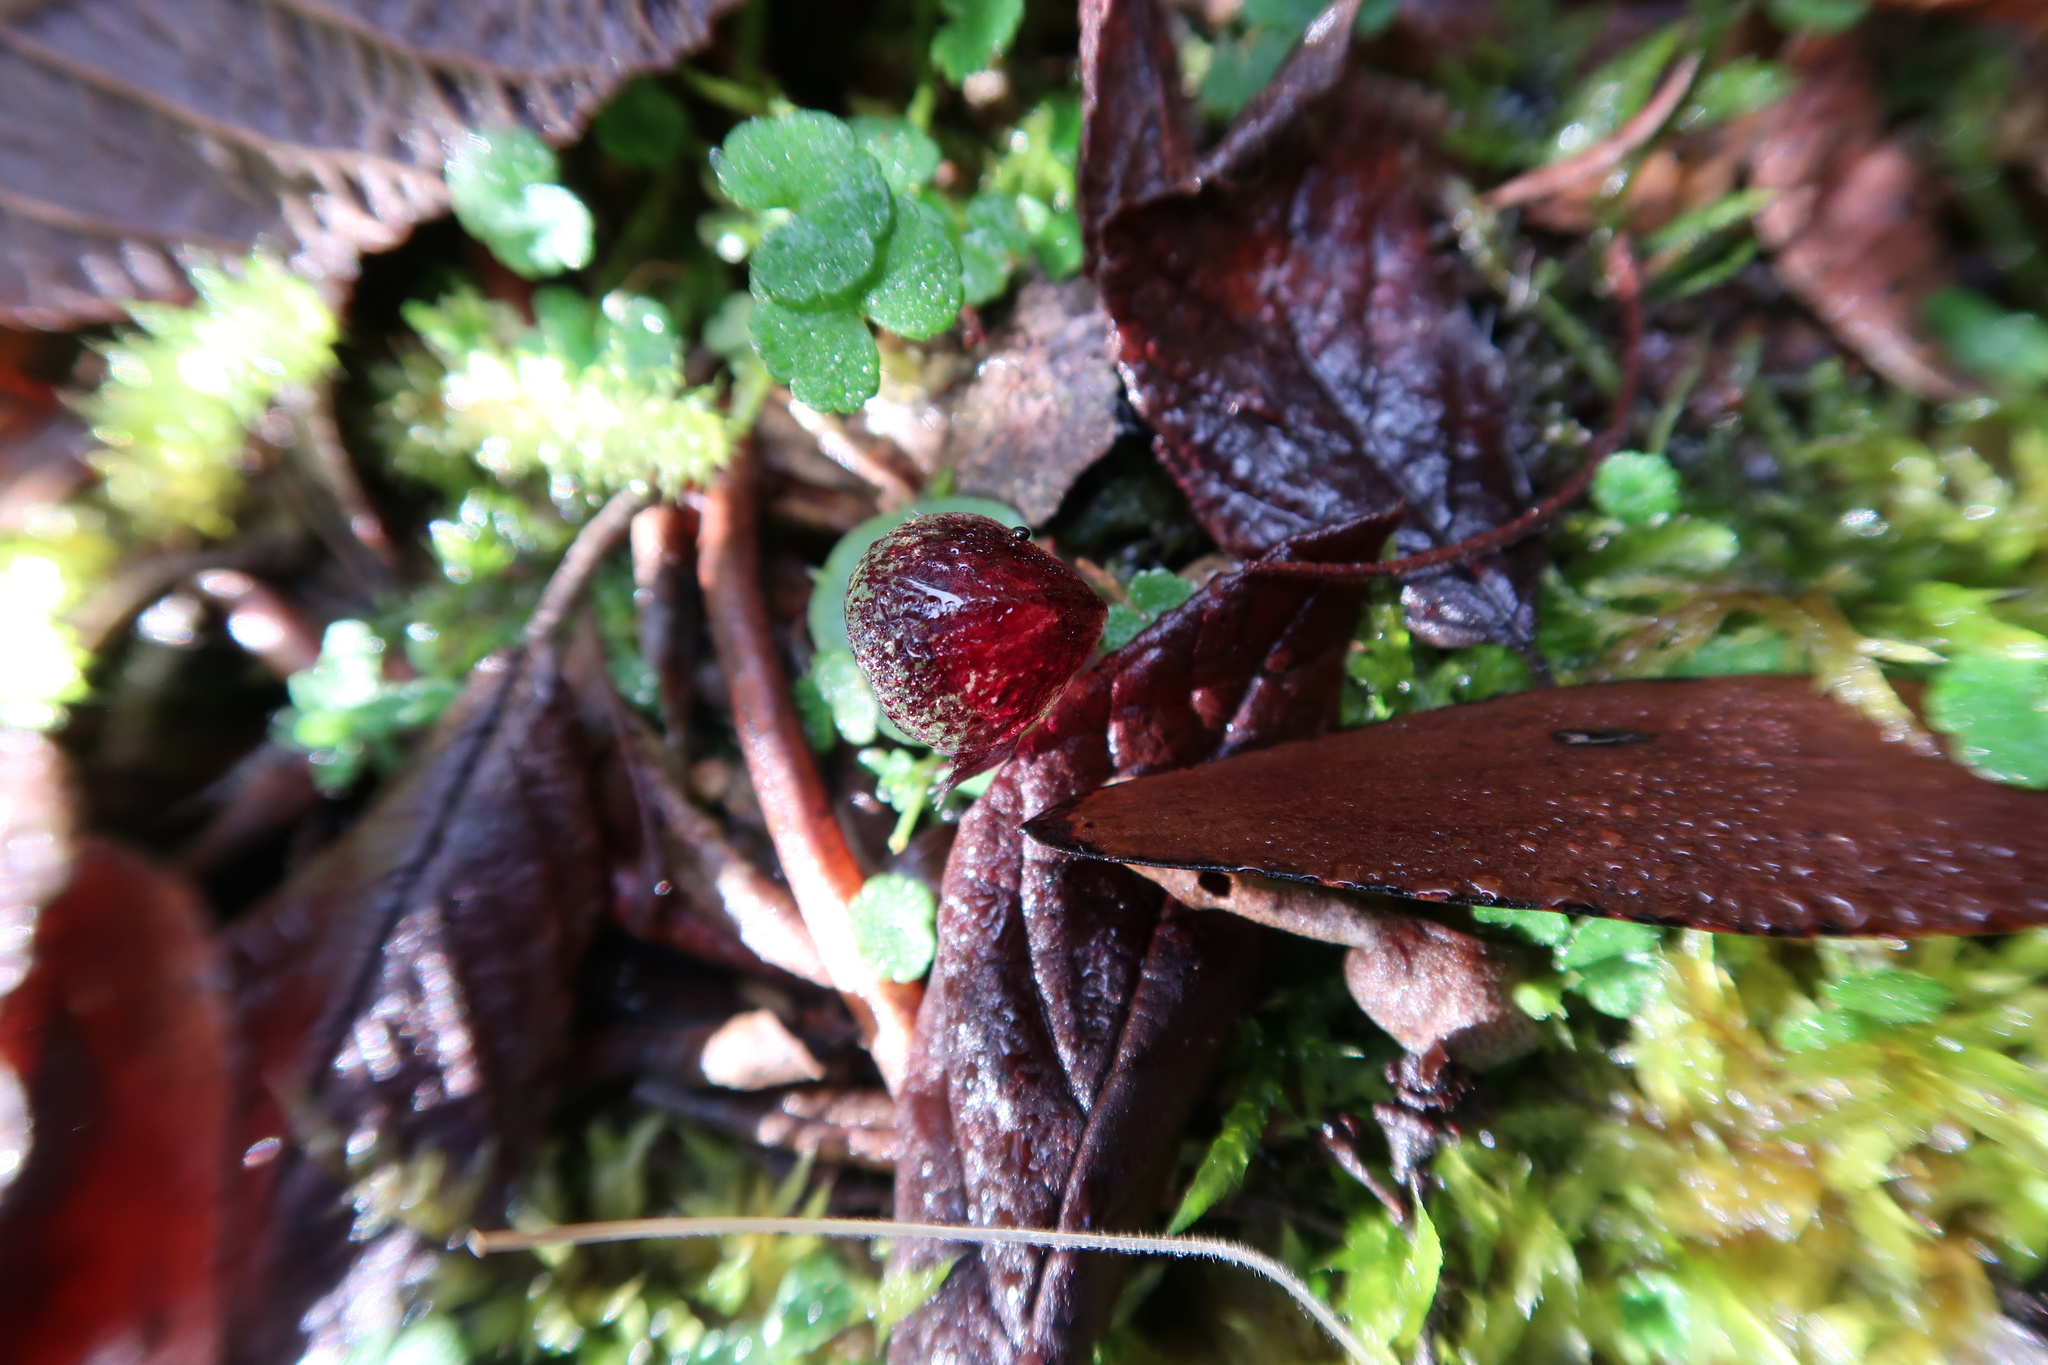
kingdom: Plantae
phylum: Tracheophyta
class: Liliopsida
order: Asparagales
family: Orchidaceae
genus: Corybas
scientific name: Corybas diemenicus
